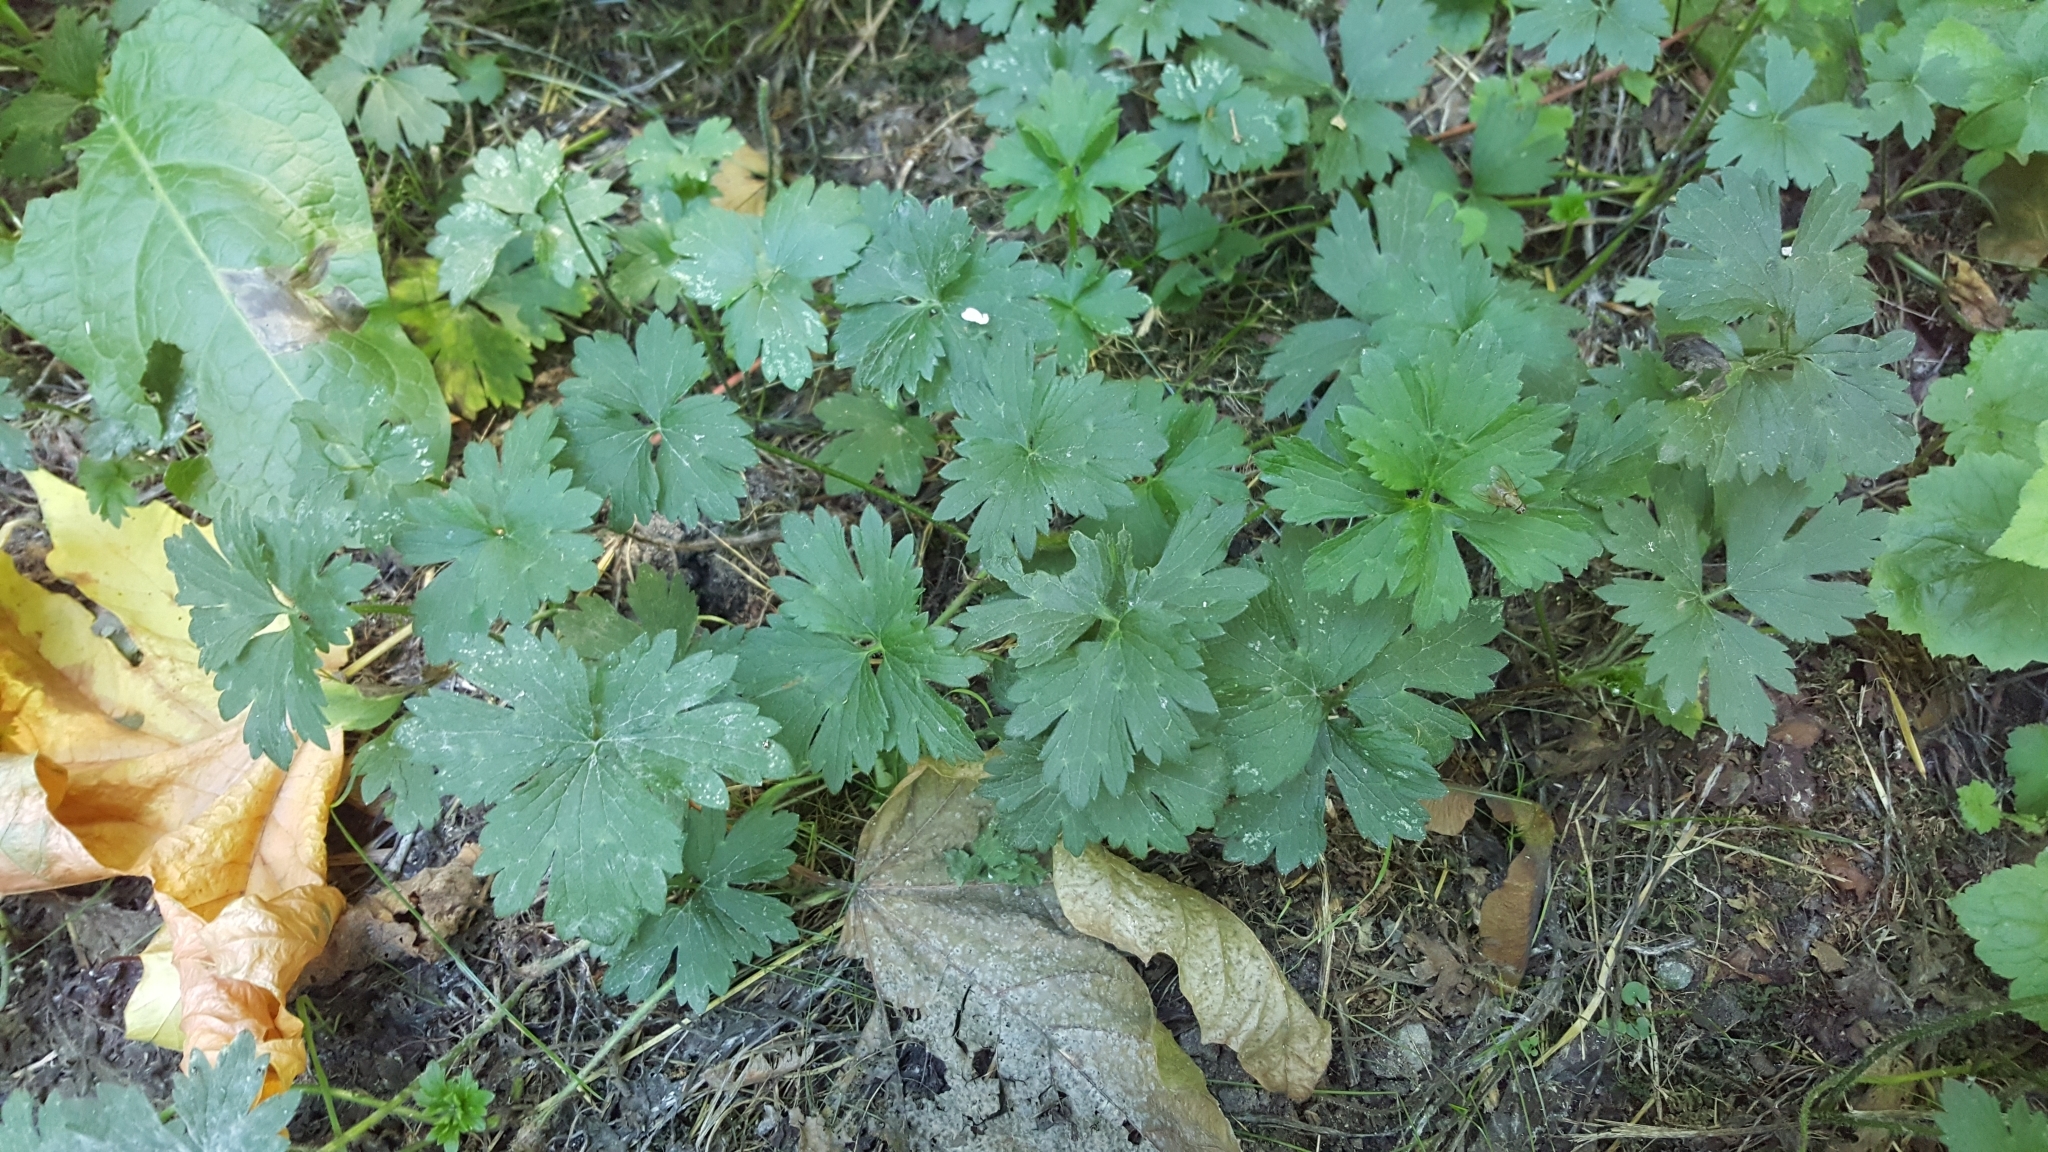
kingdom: Plantae
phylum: Tracheophyta
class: Magnoliopsida
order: Ranunculales
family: Ranunculaceae
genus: Ranunculus
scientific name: Ranunculus repens
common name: Creeping buttercup
